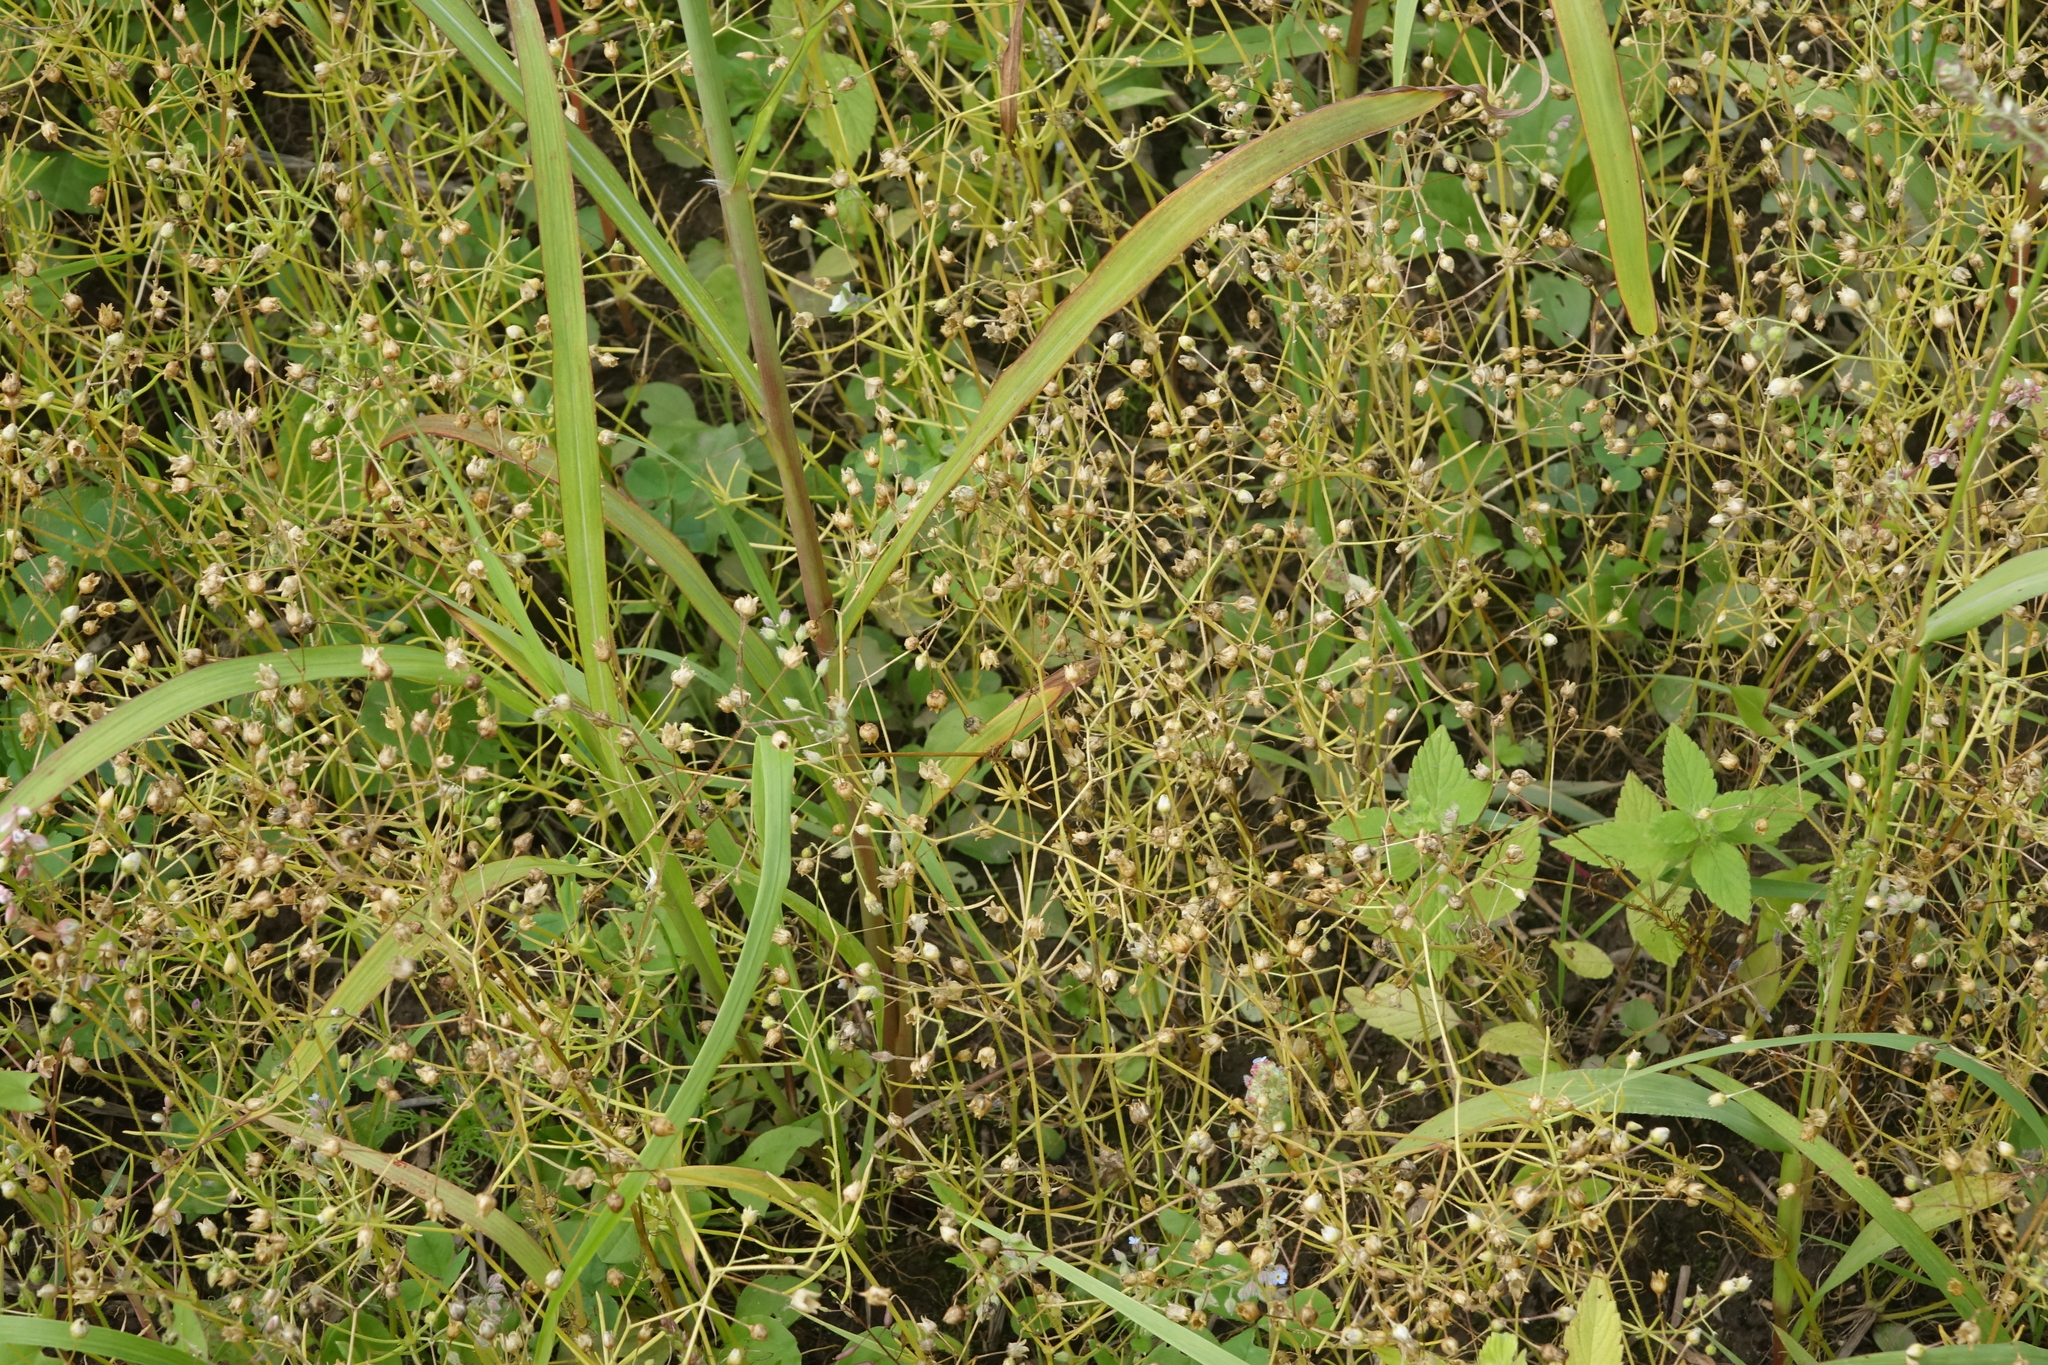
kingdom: Plantae
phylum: Tracheophyta
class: Magnoliopsida
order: Caryophyllales
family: Caryophyllaceae
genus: Spergula
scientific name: Spergula arvensis
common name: Corn spurrey
